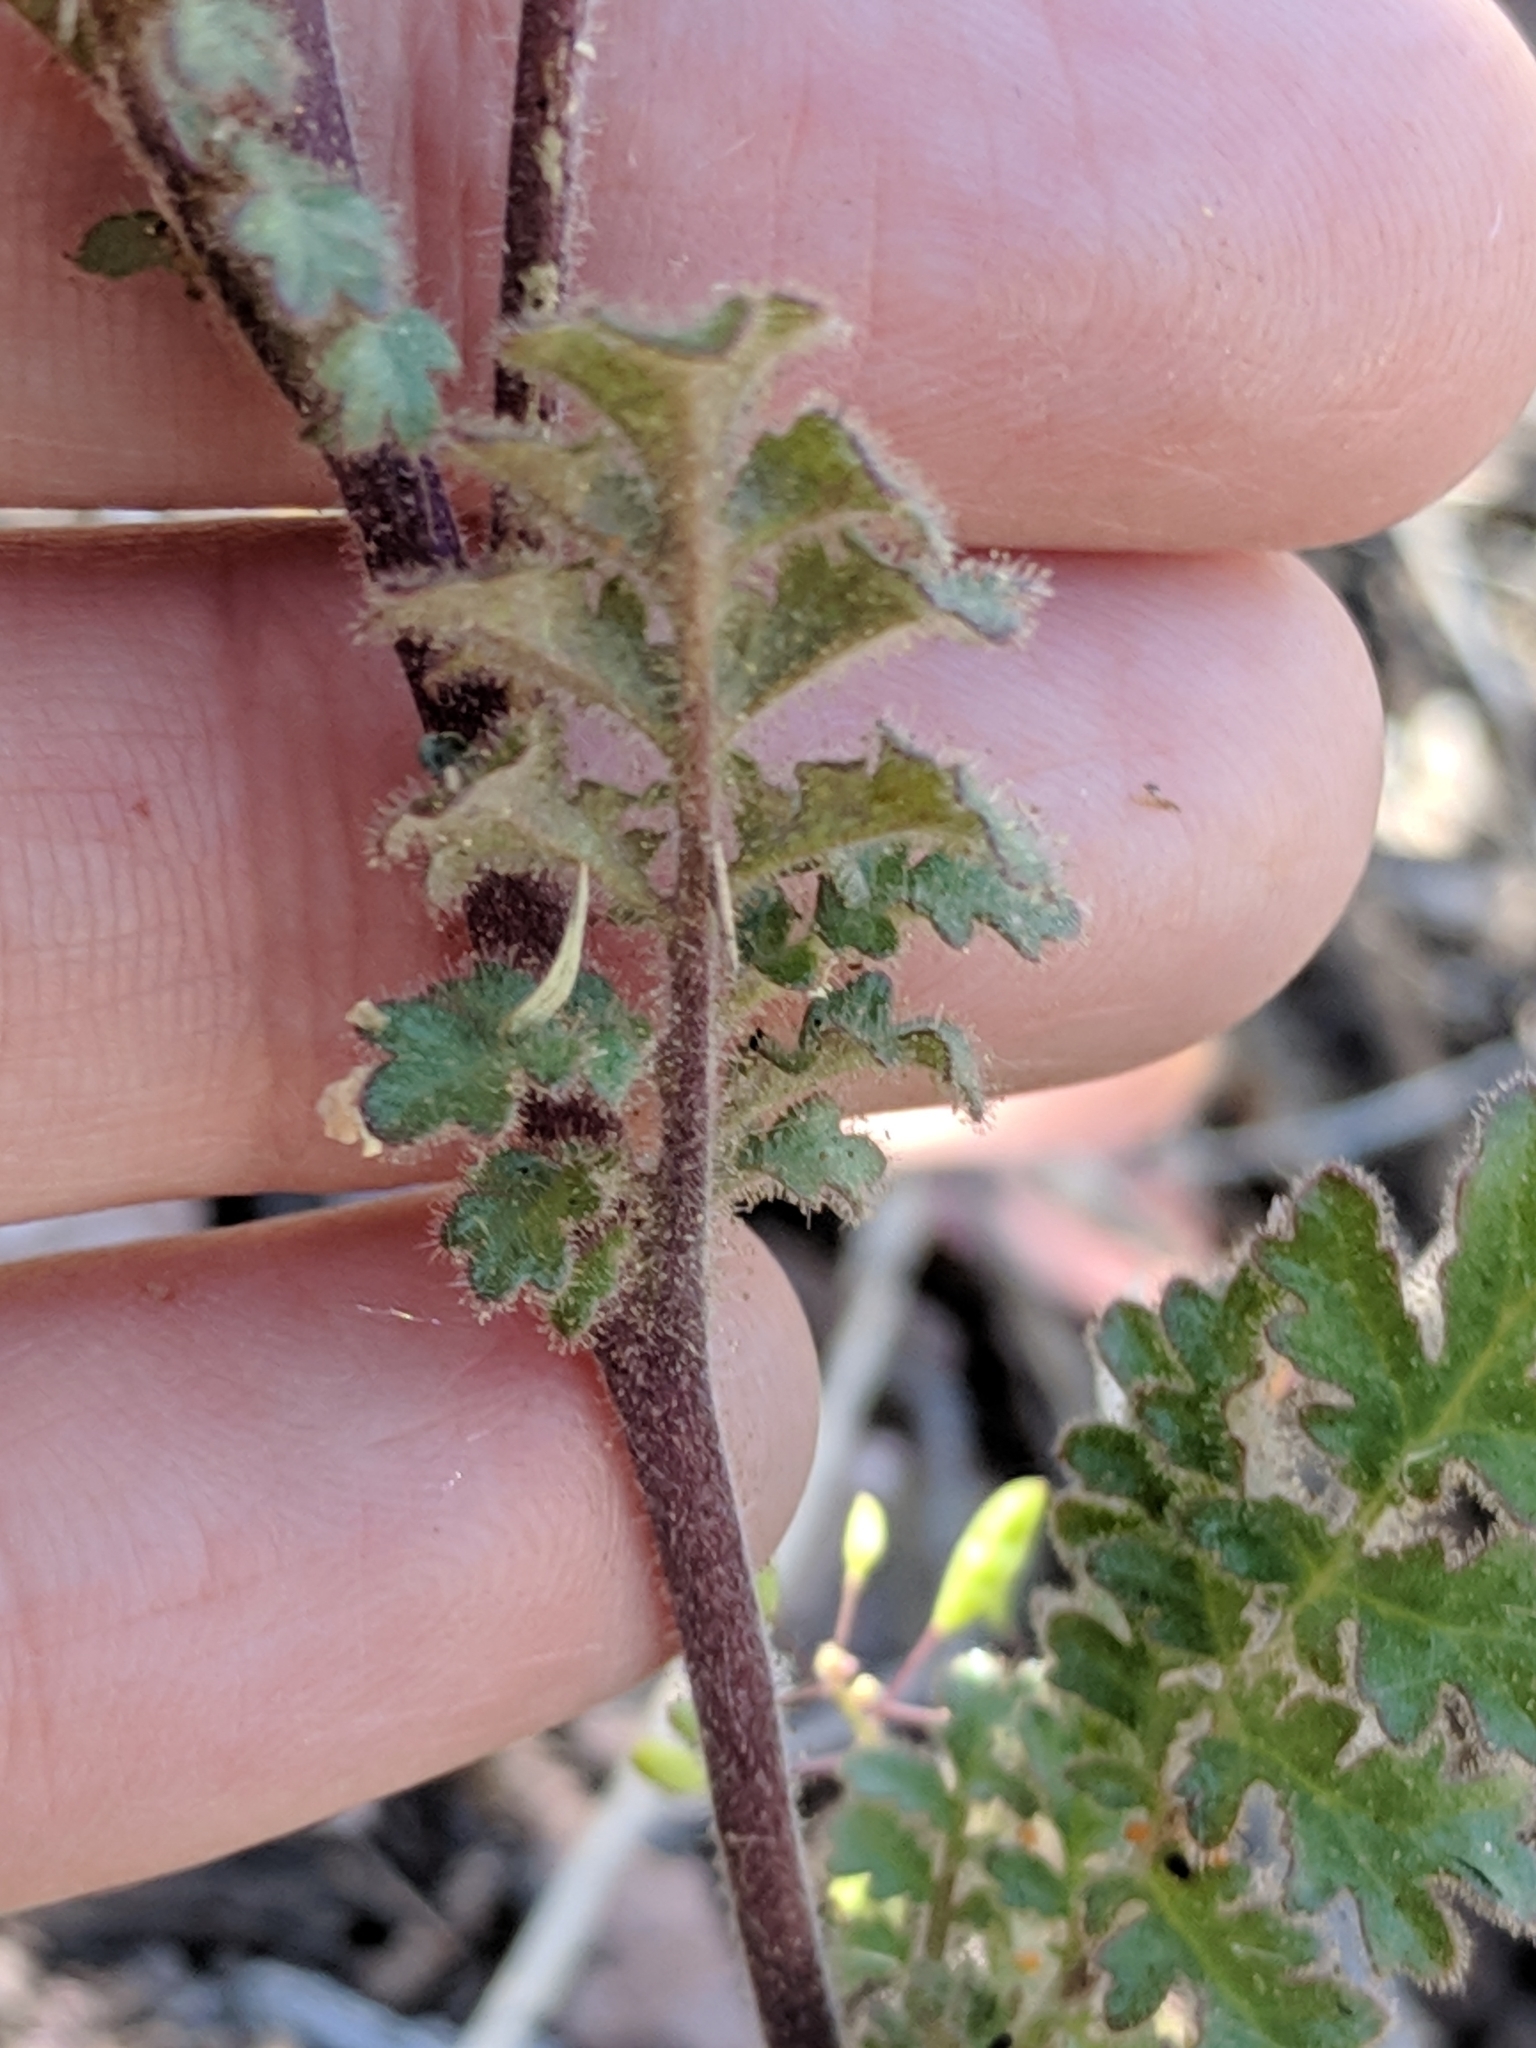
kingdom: Plantae
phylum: Tracheophyta
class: Magnoliopsida
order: Boraginales
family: Hydrophyllaceae
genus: Phacelia
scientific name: Phacelia infundibuliformis
